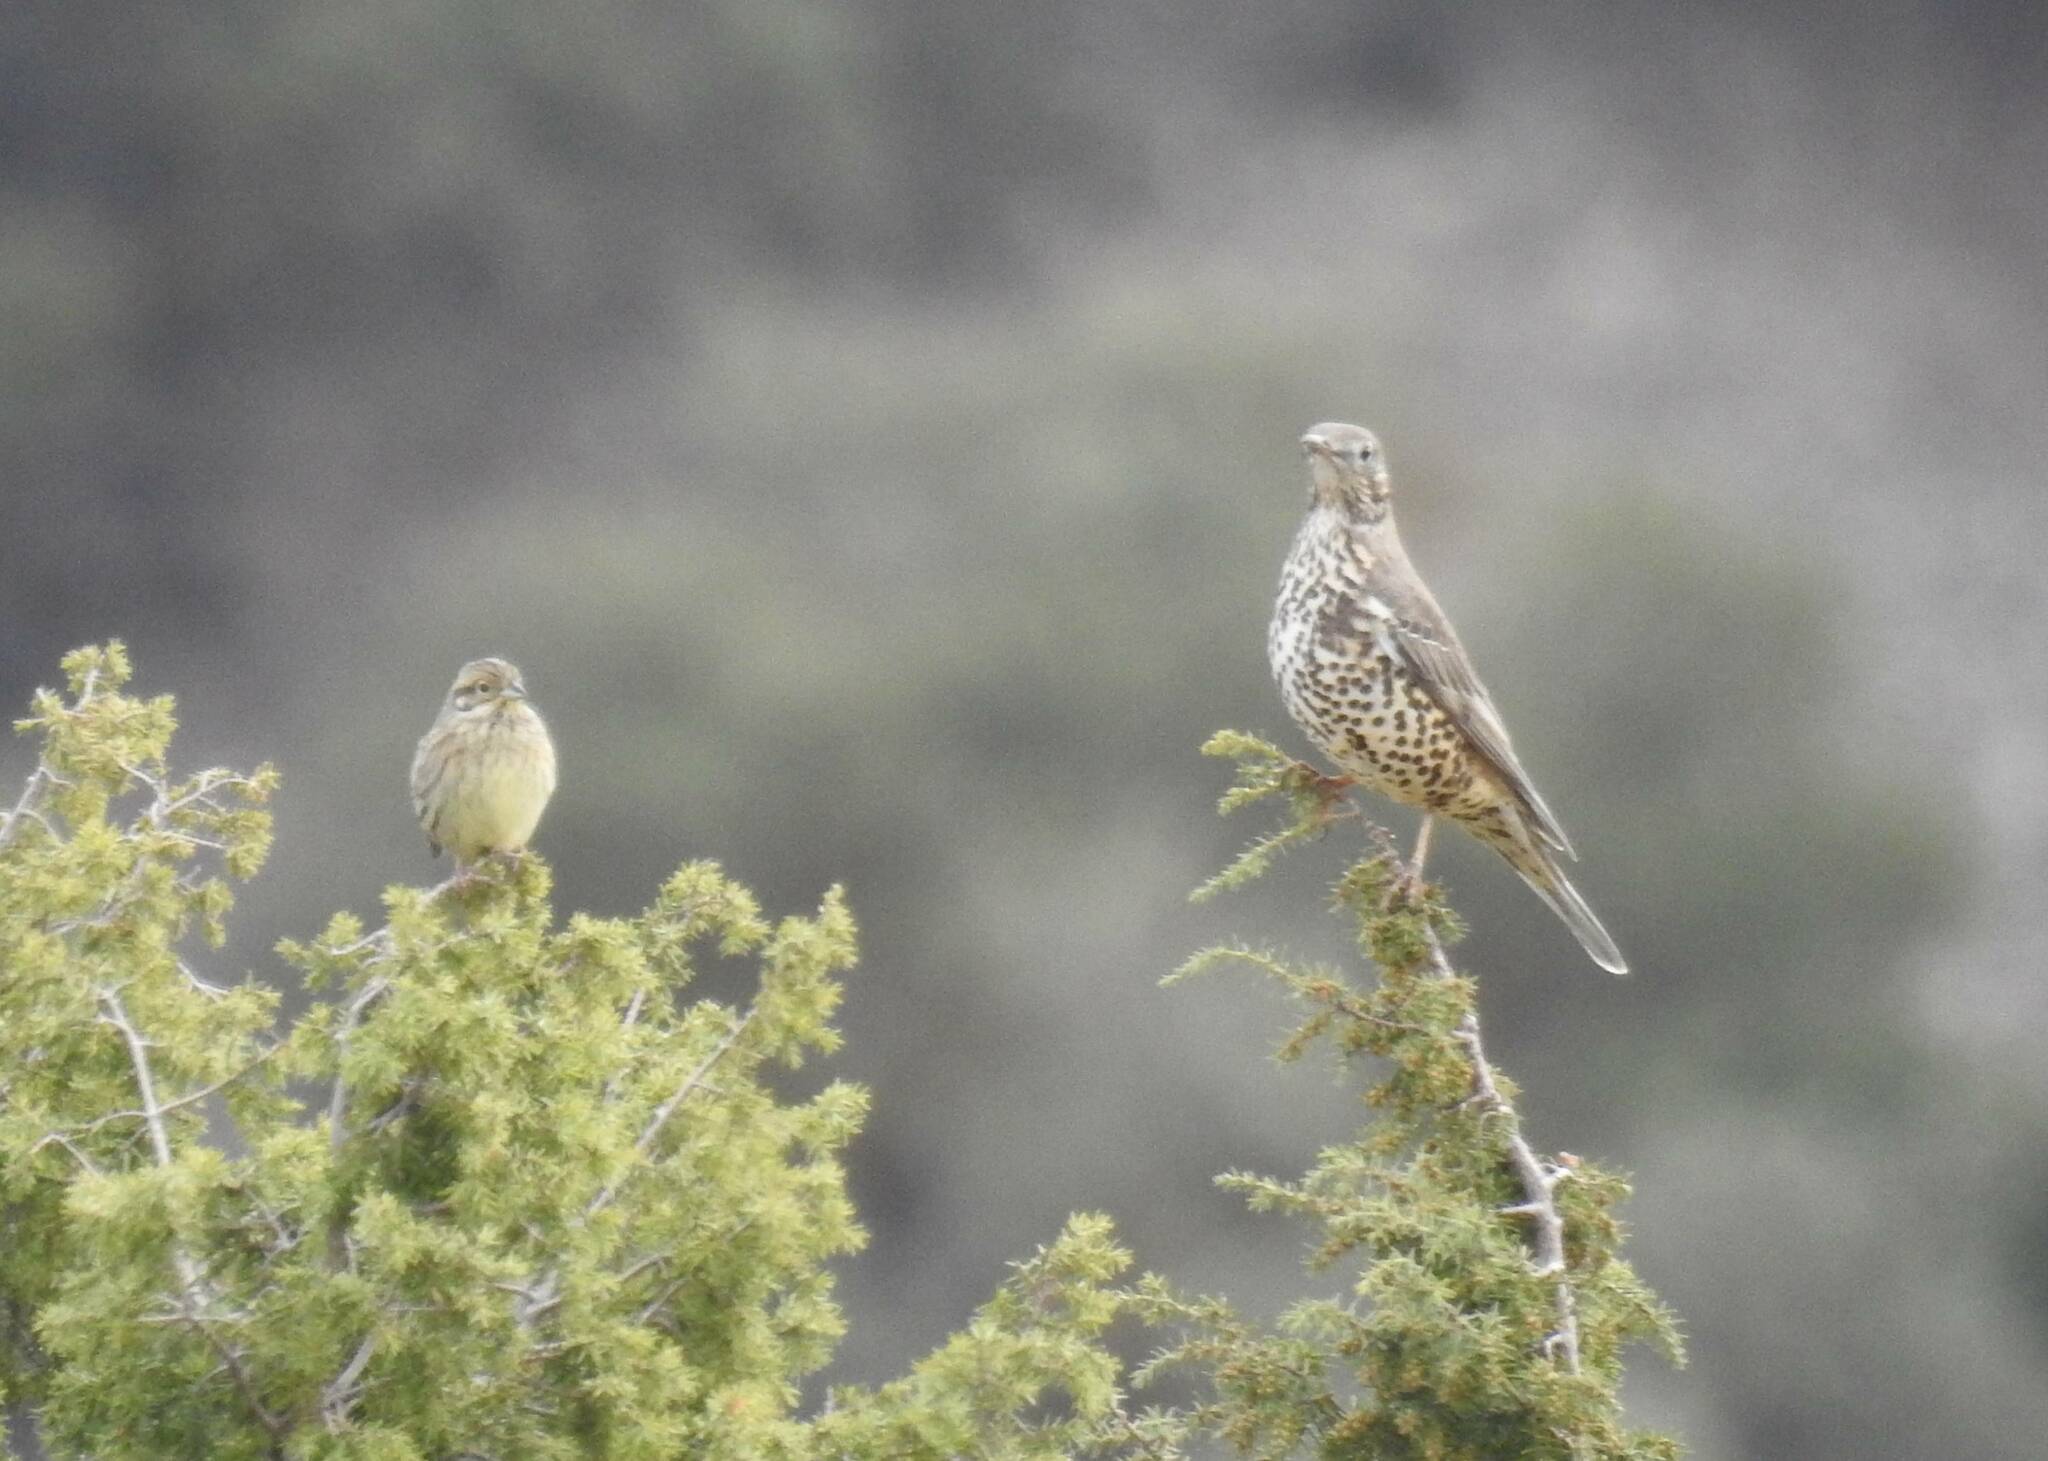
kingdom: Animalia
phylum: Chordata
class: Aves
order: Passeriformes
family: Turdidae
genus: Turdus
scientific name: Turdus viscivorus
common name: Mistle thrush
